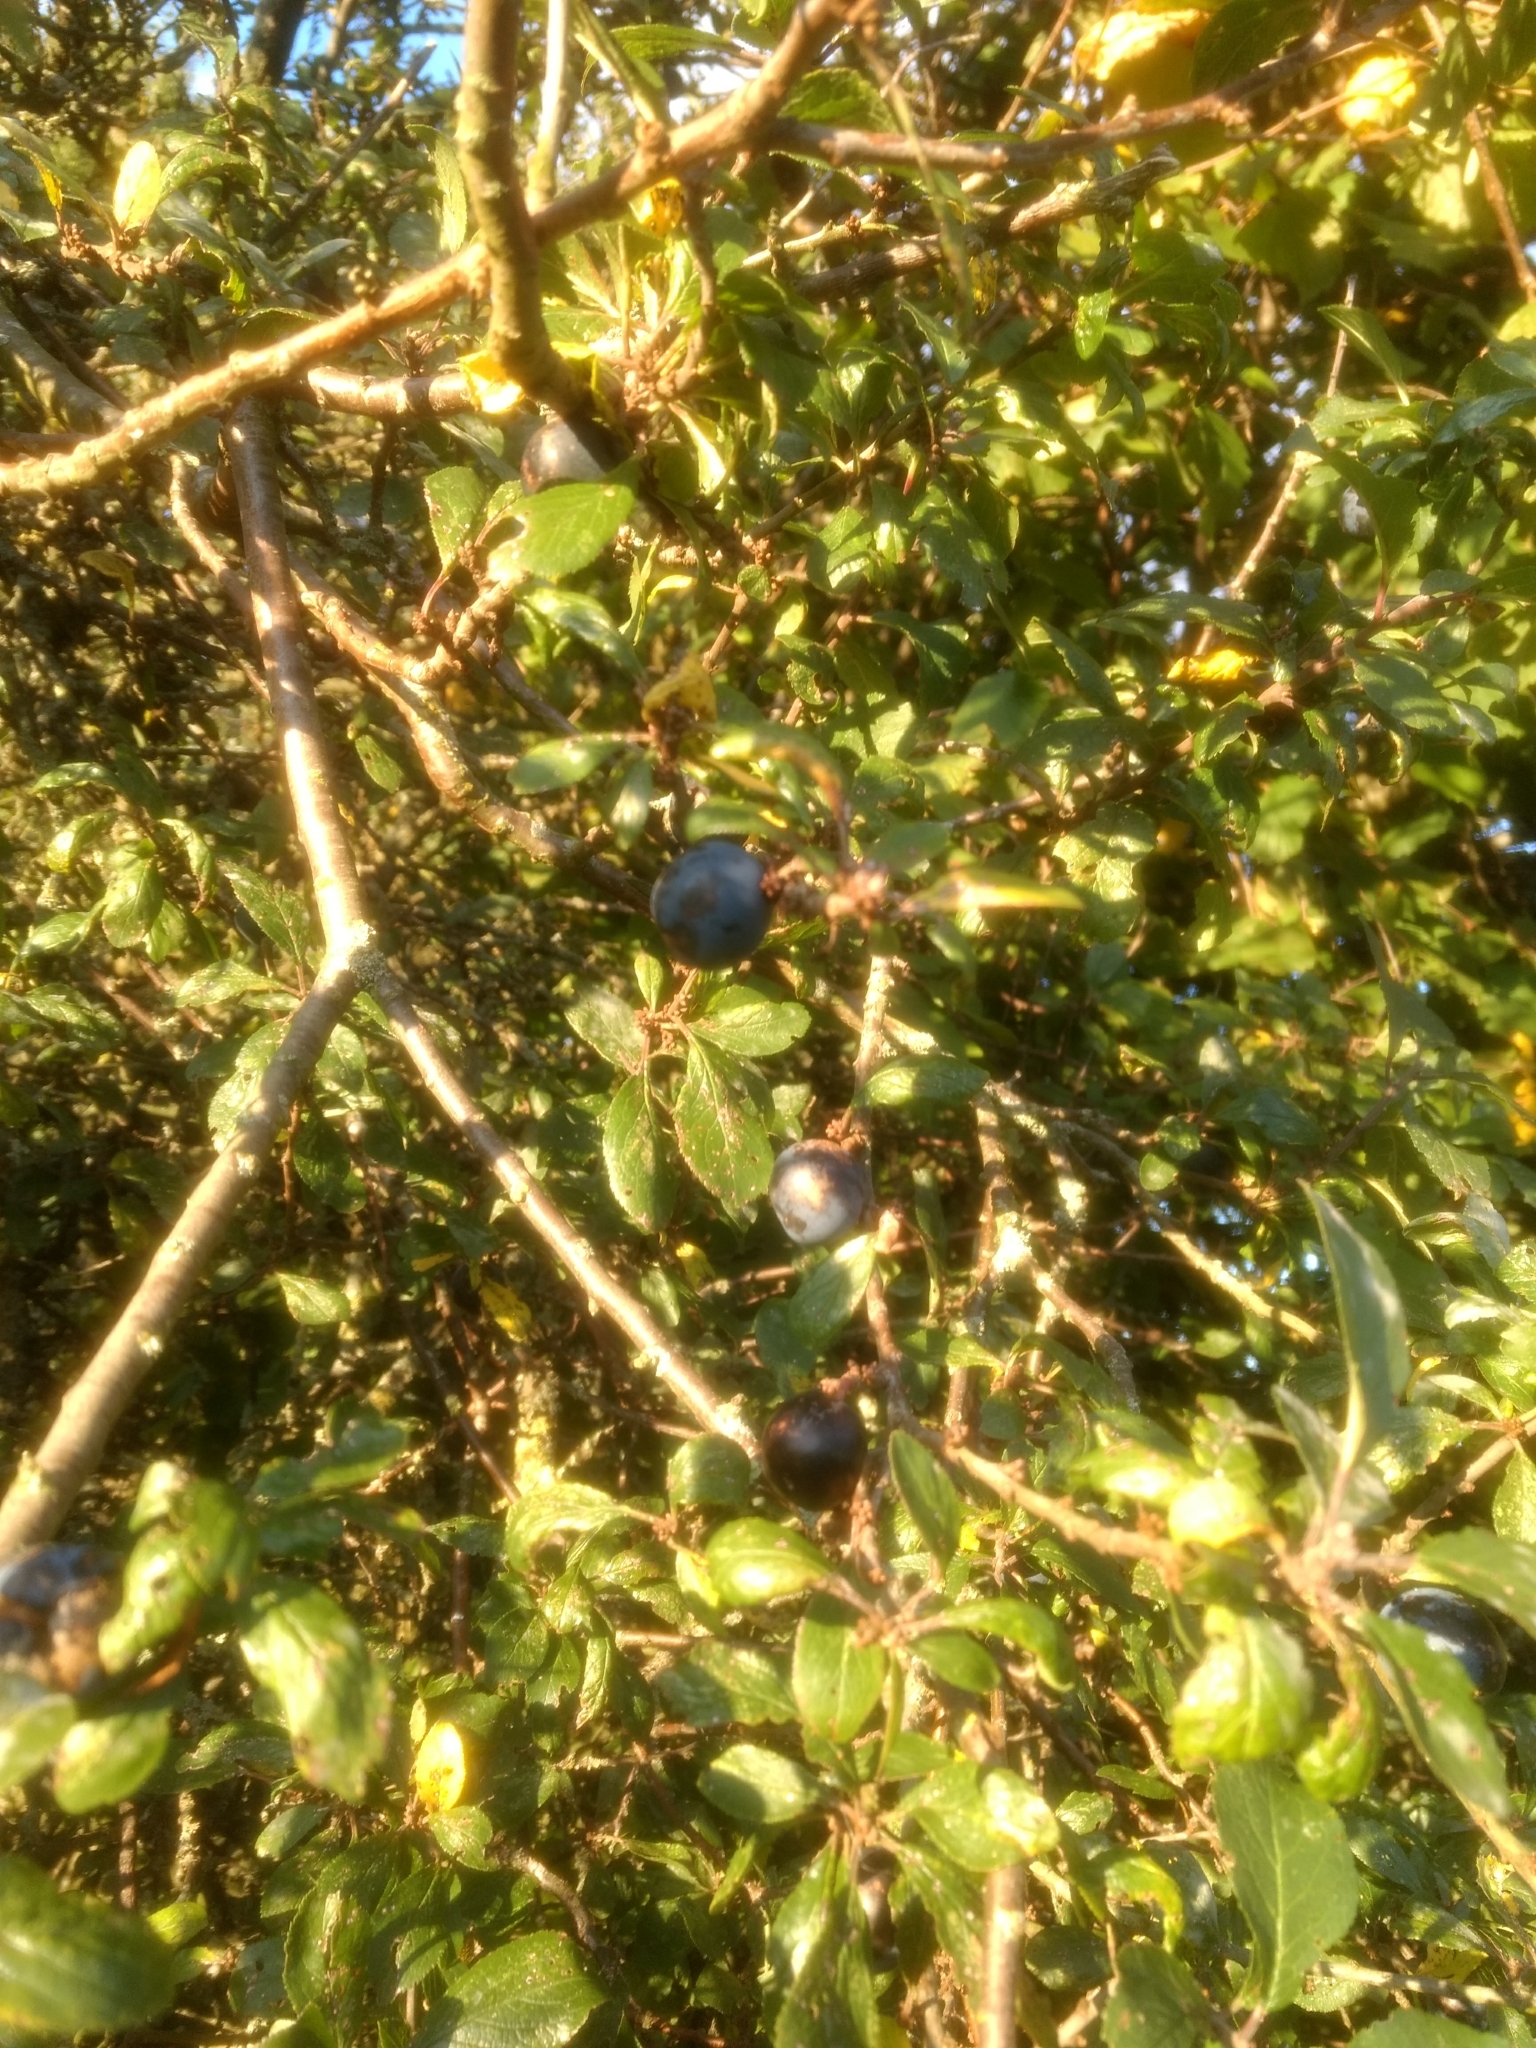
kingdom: Plantae
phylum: Tracheophyta
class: Magnoliopsida
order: Rosales
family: Rosaceae
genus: Prunus
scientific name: Prunus
